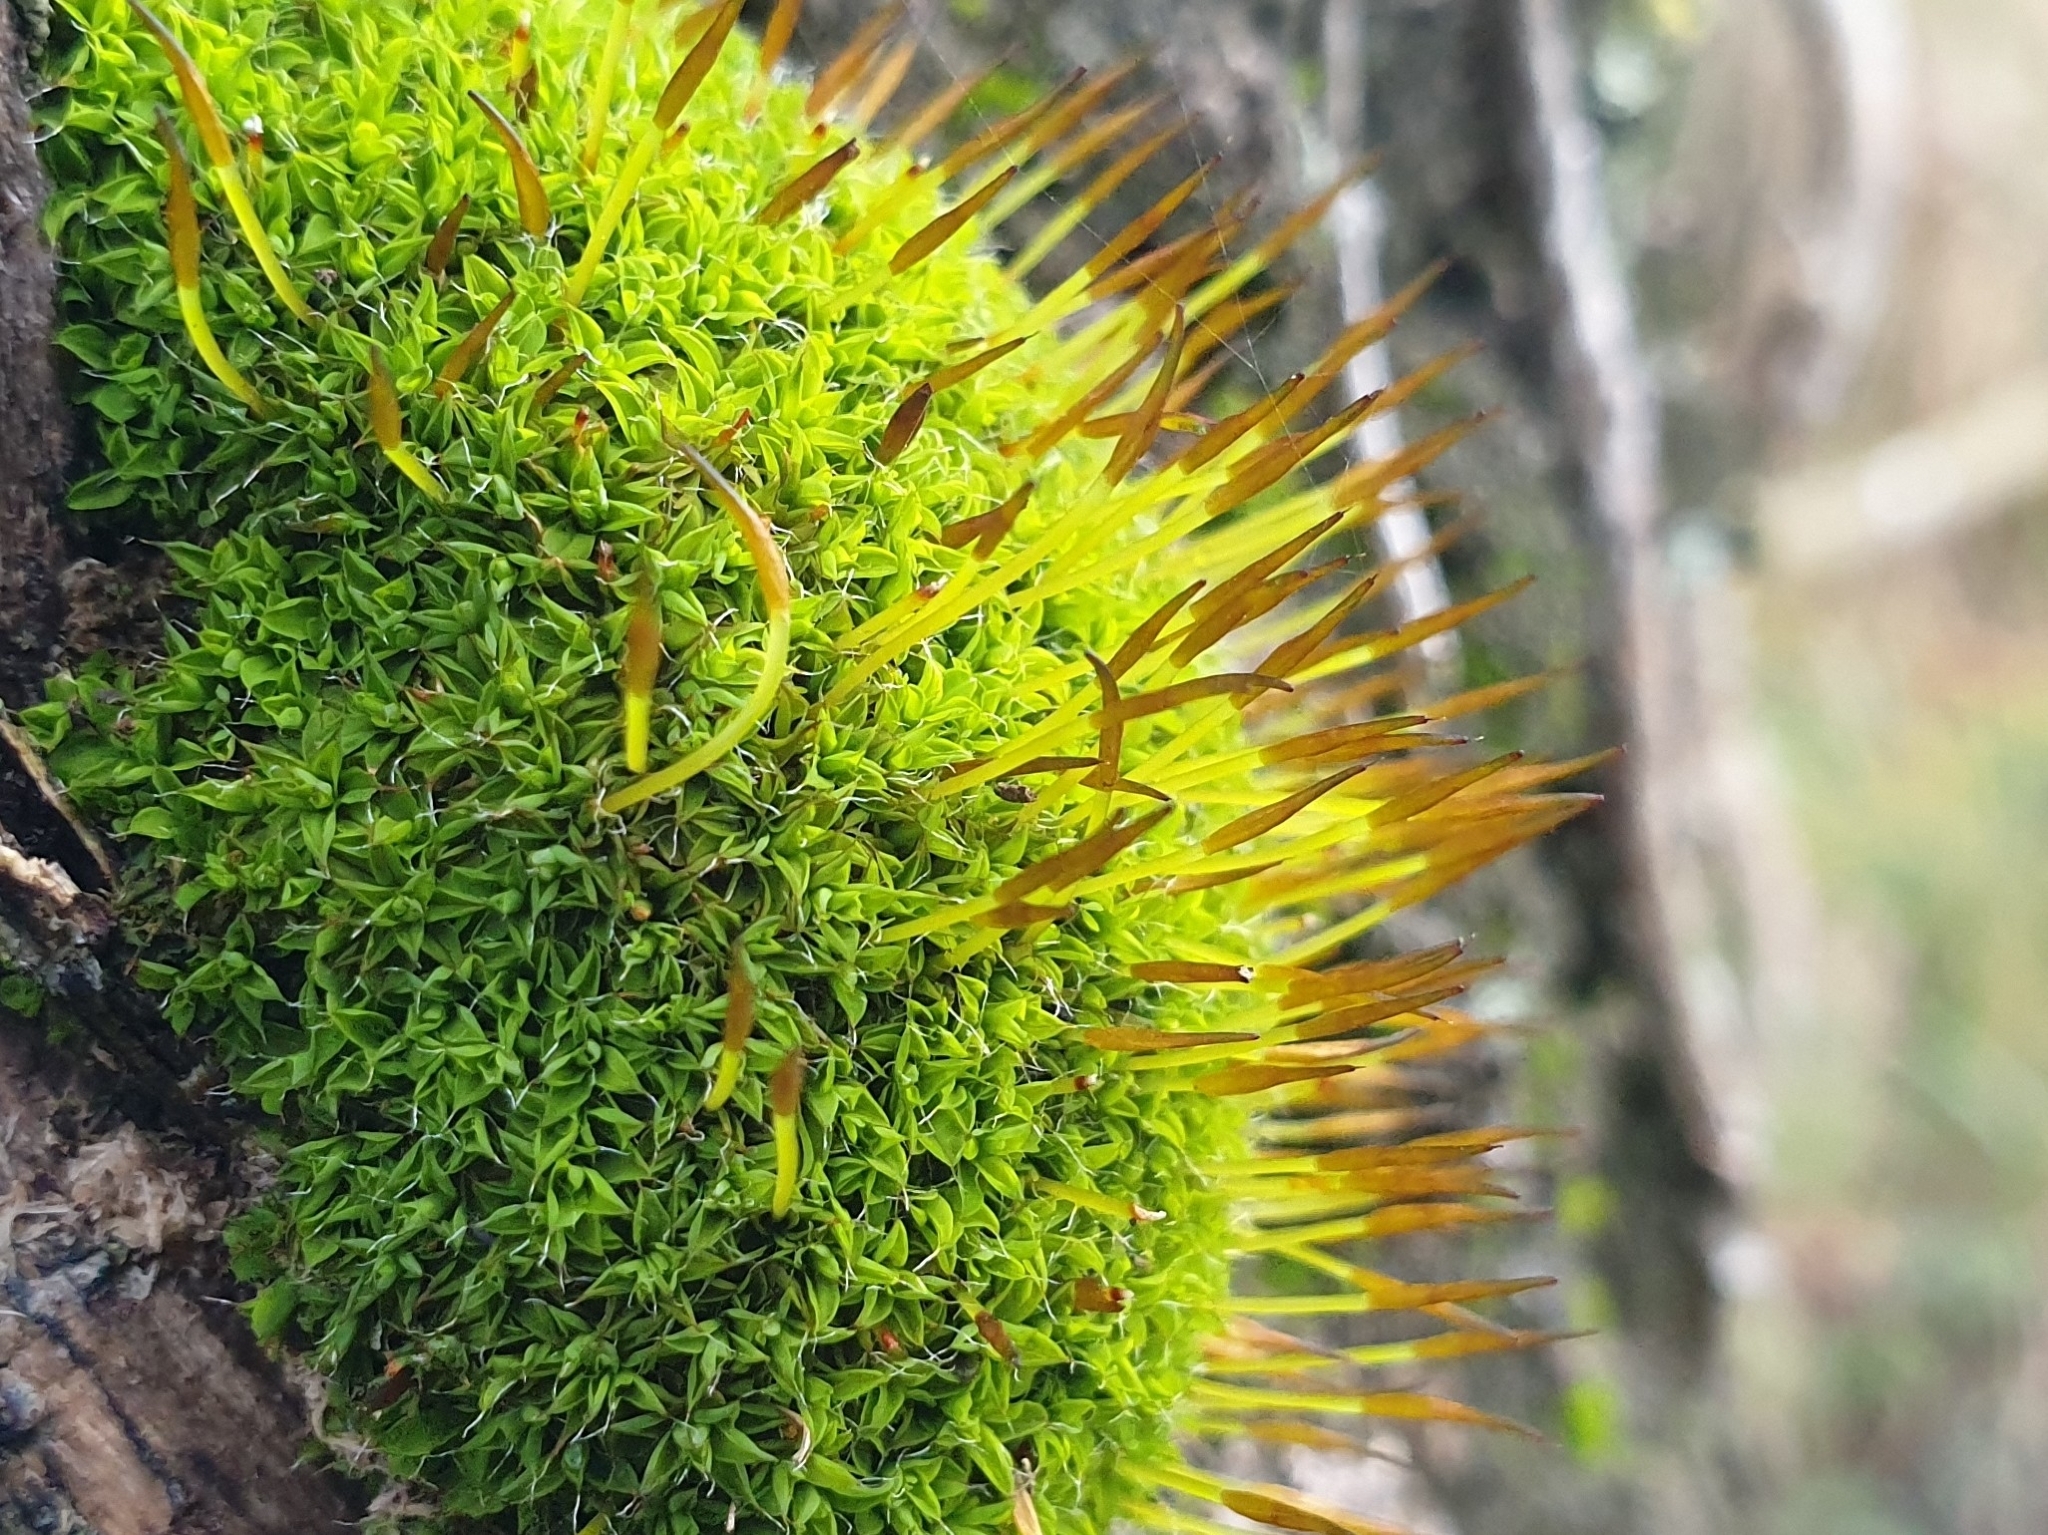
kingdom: Plantae
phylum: Bryophyta
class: Bryopsida
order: Pottiales
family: Pottiaceae
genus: Tortula
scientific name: Tortula muralis
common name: Wall screw-moss
